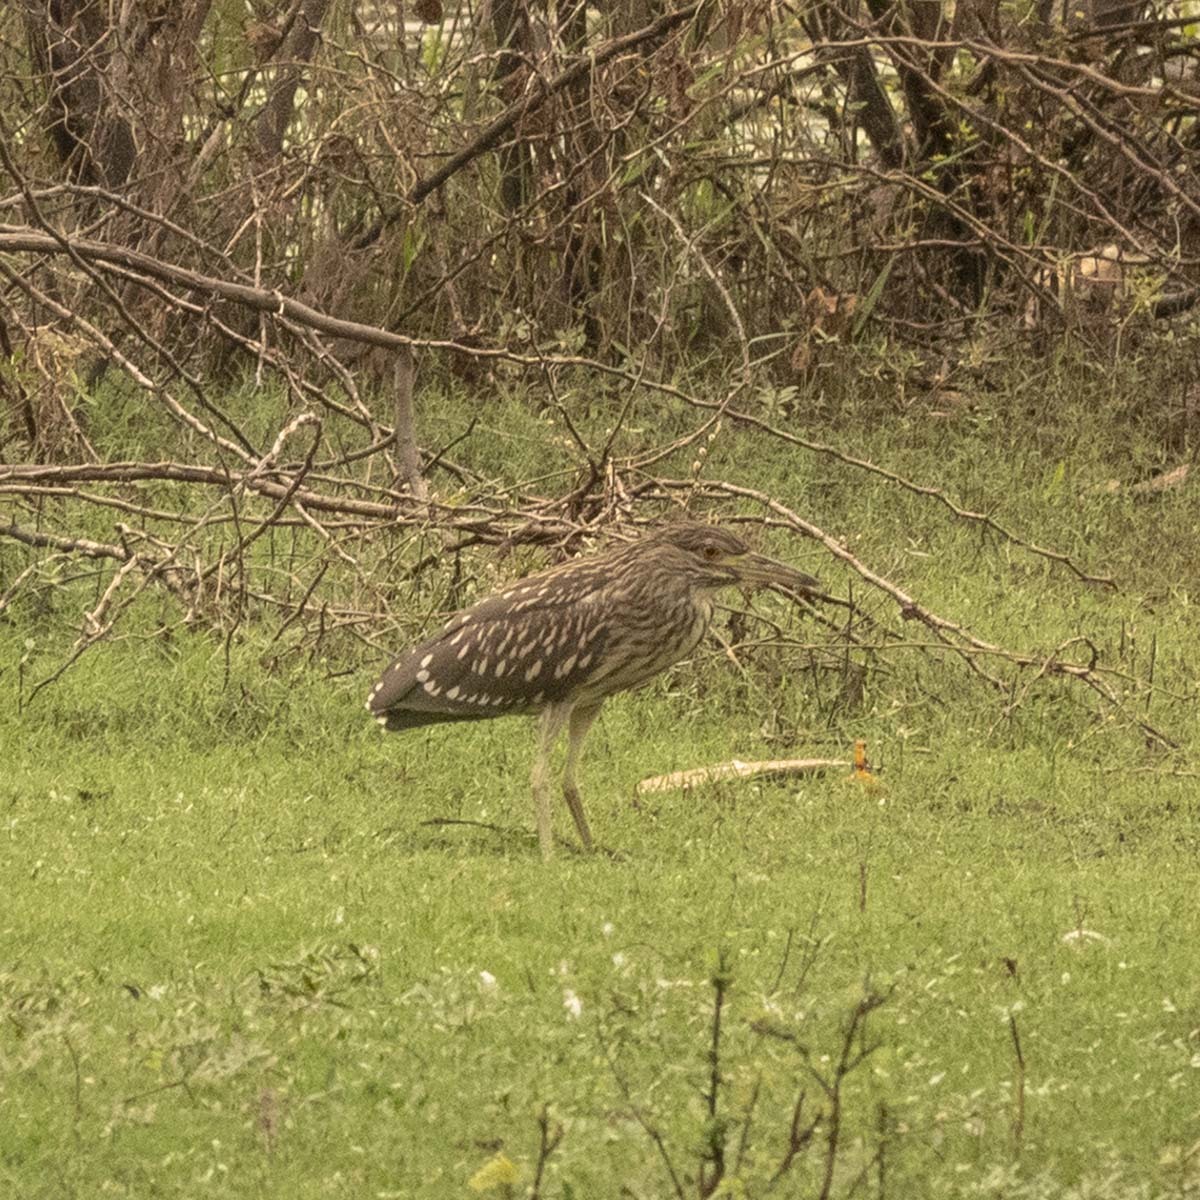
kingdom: Animalia
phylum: Chordata
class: Aves
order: Pelecaniformes
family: Ardeidae
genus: Nycticorax
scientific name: Nycticorax nycticorax
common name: Black-crowned night heron
